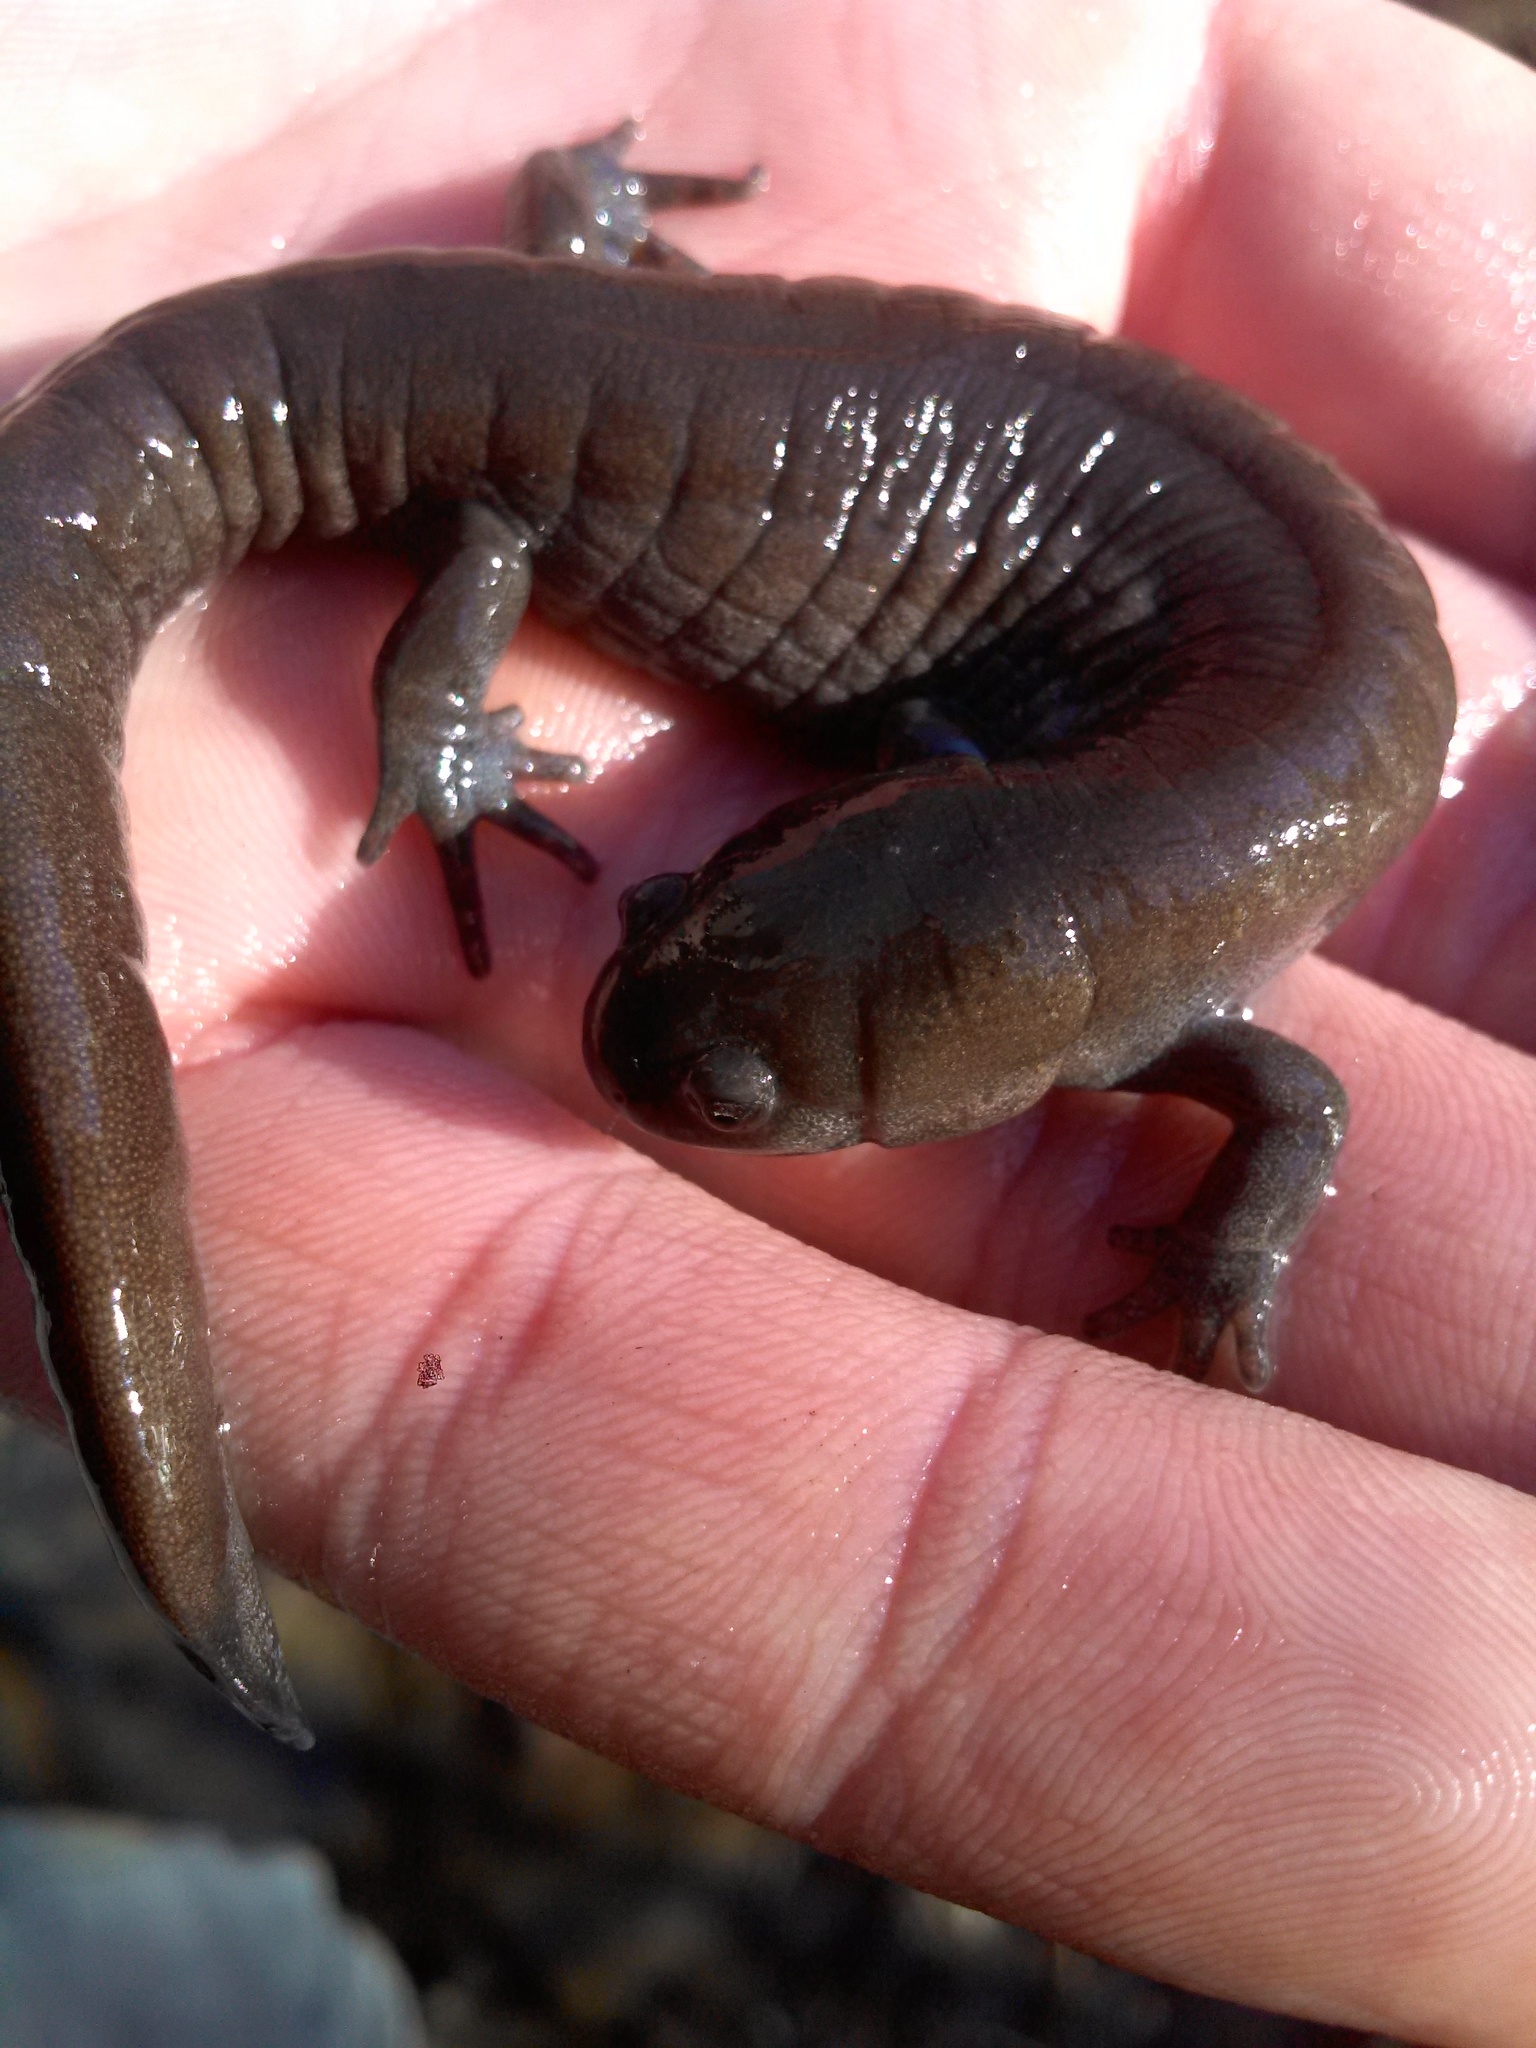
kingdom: Animalia
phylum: Chordata
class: Amphibia
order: Caudata
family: Ambystomatidae
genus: Ambystoma
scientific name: Ambystoma barbouri
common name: Streamside salamander
